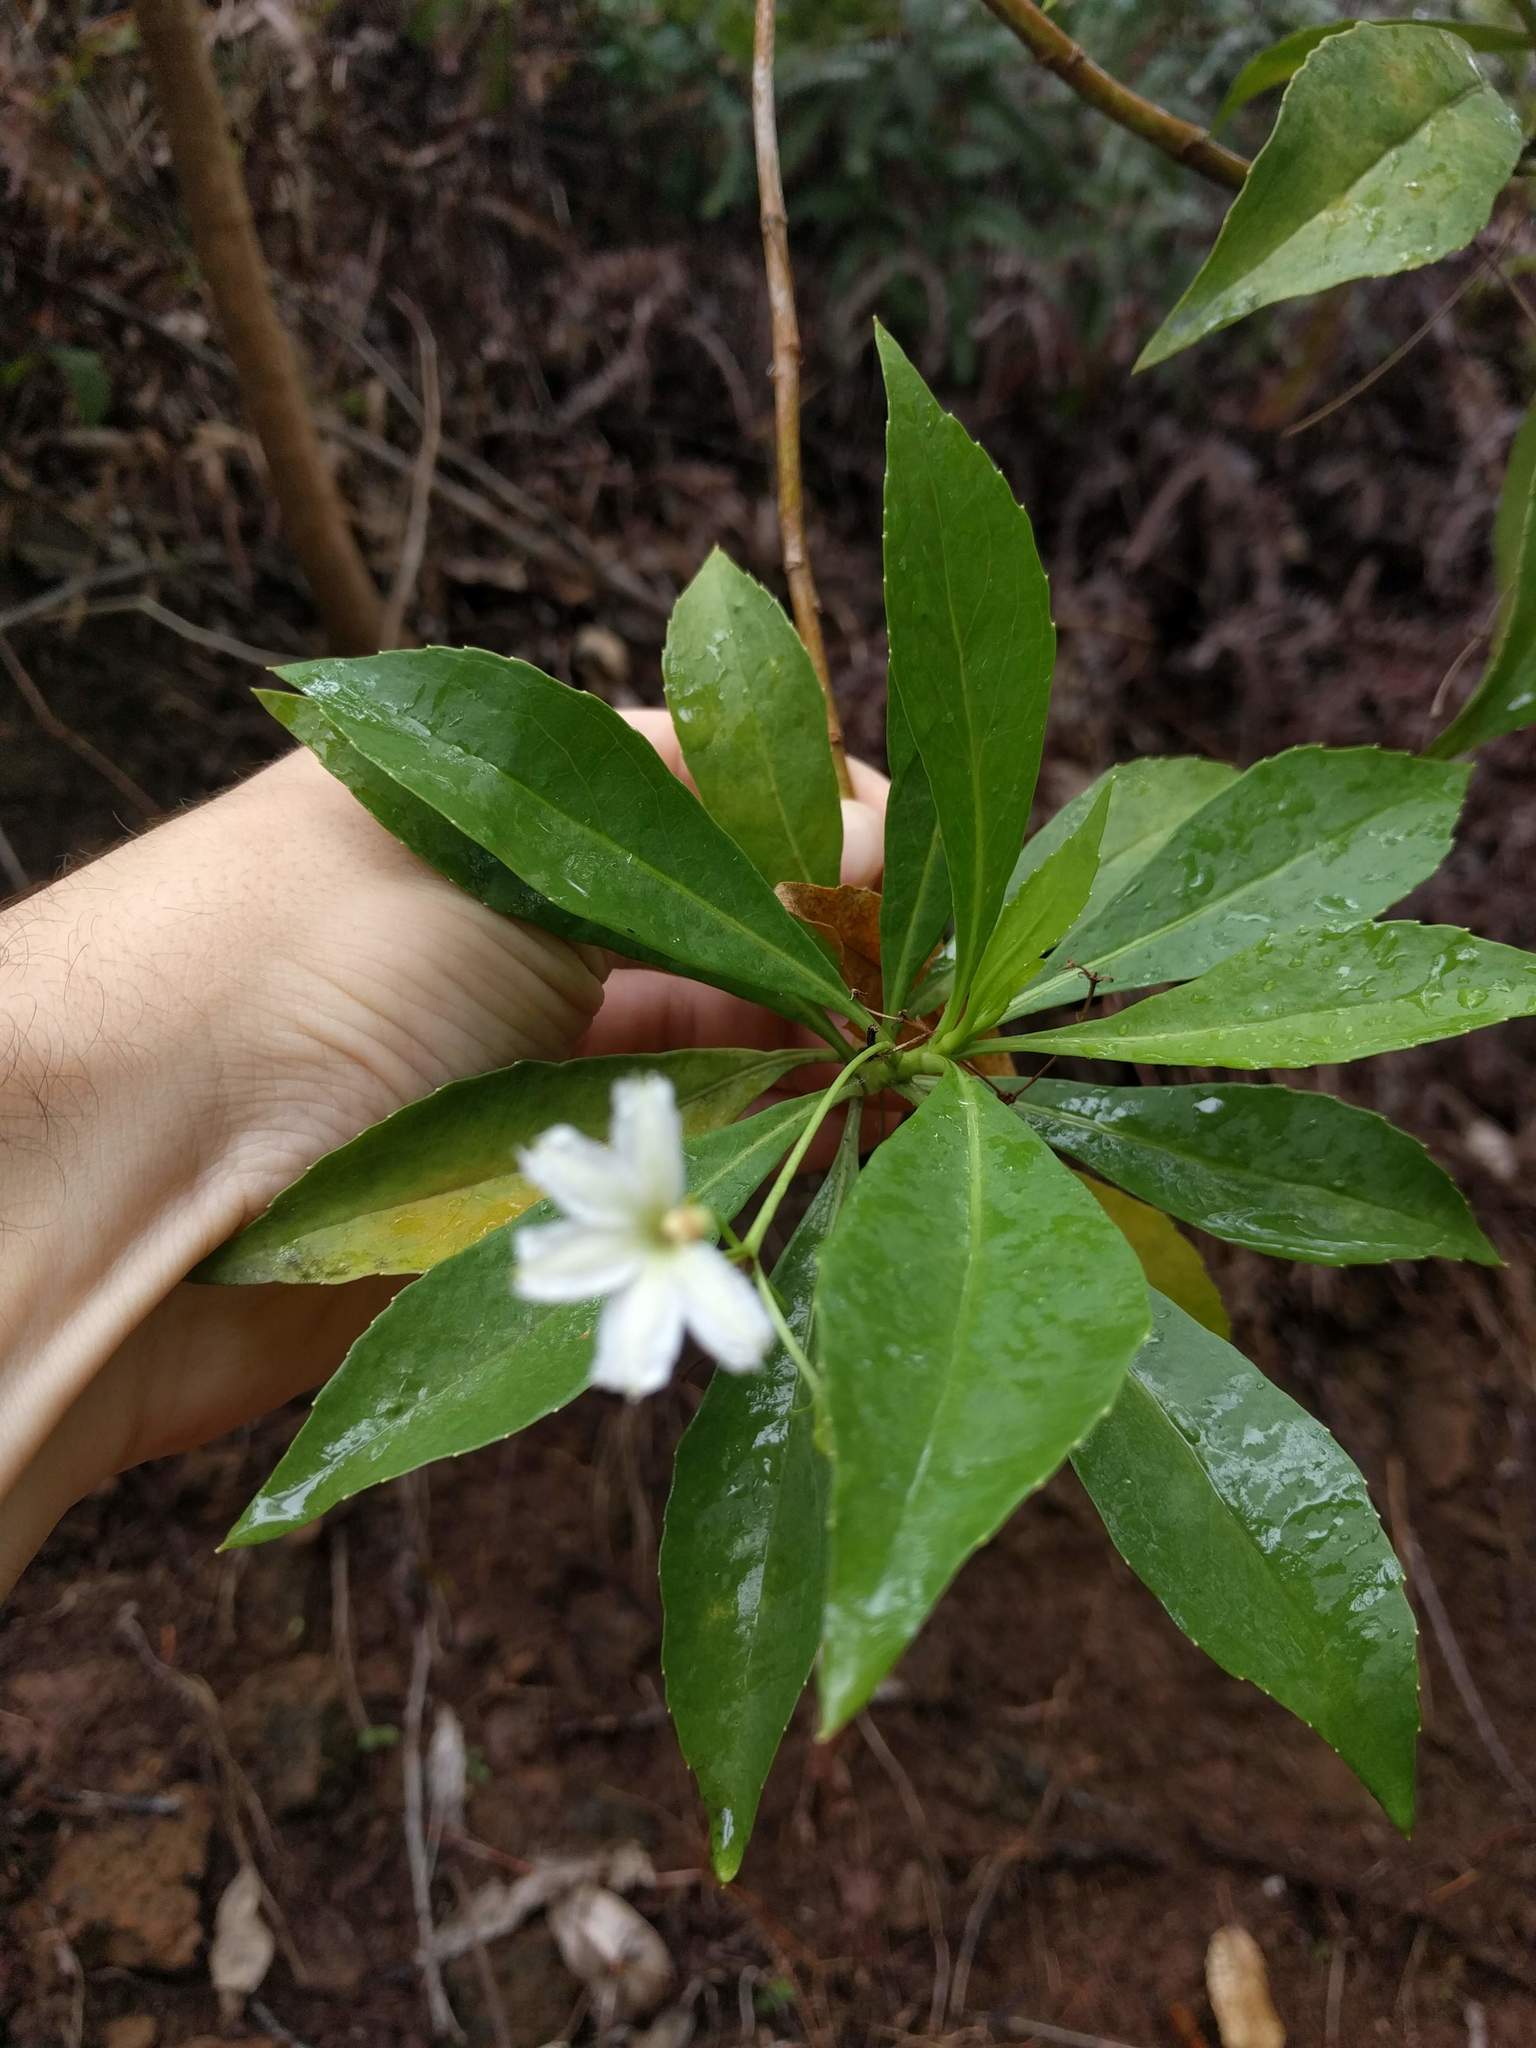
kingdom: Plantae
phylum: Tracheophyta
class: Magnoliopsida
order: Asterales
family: Goodeniaceae
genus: Scaevola
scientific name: Scaevola gaudichaudiana
